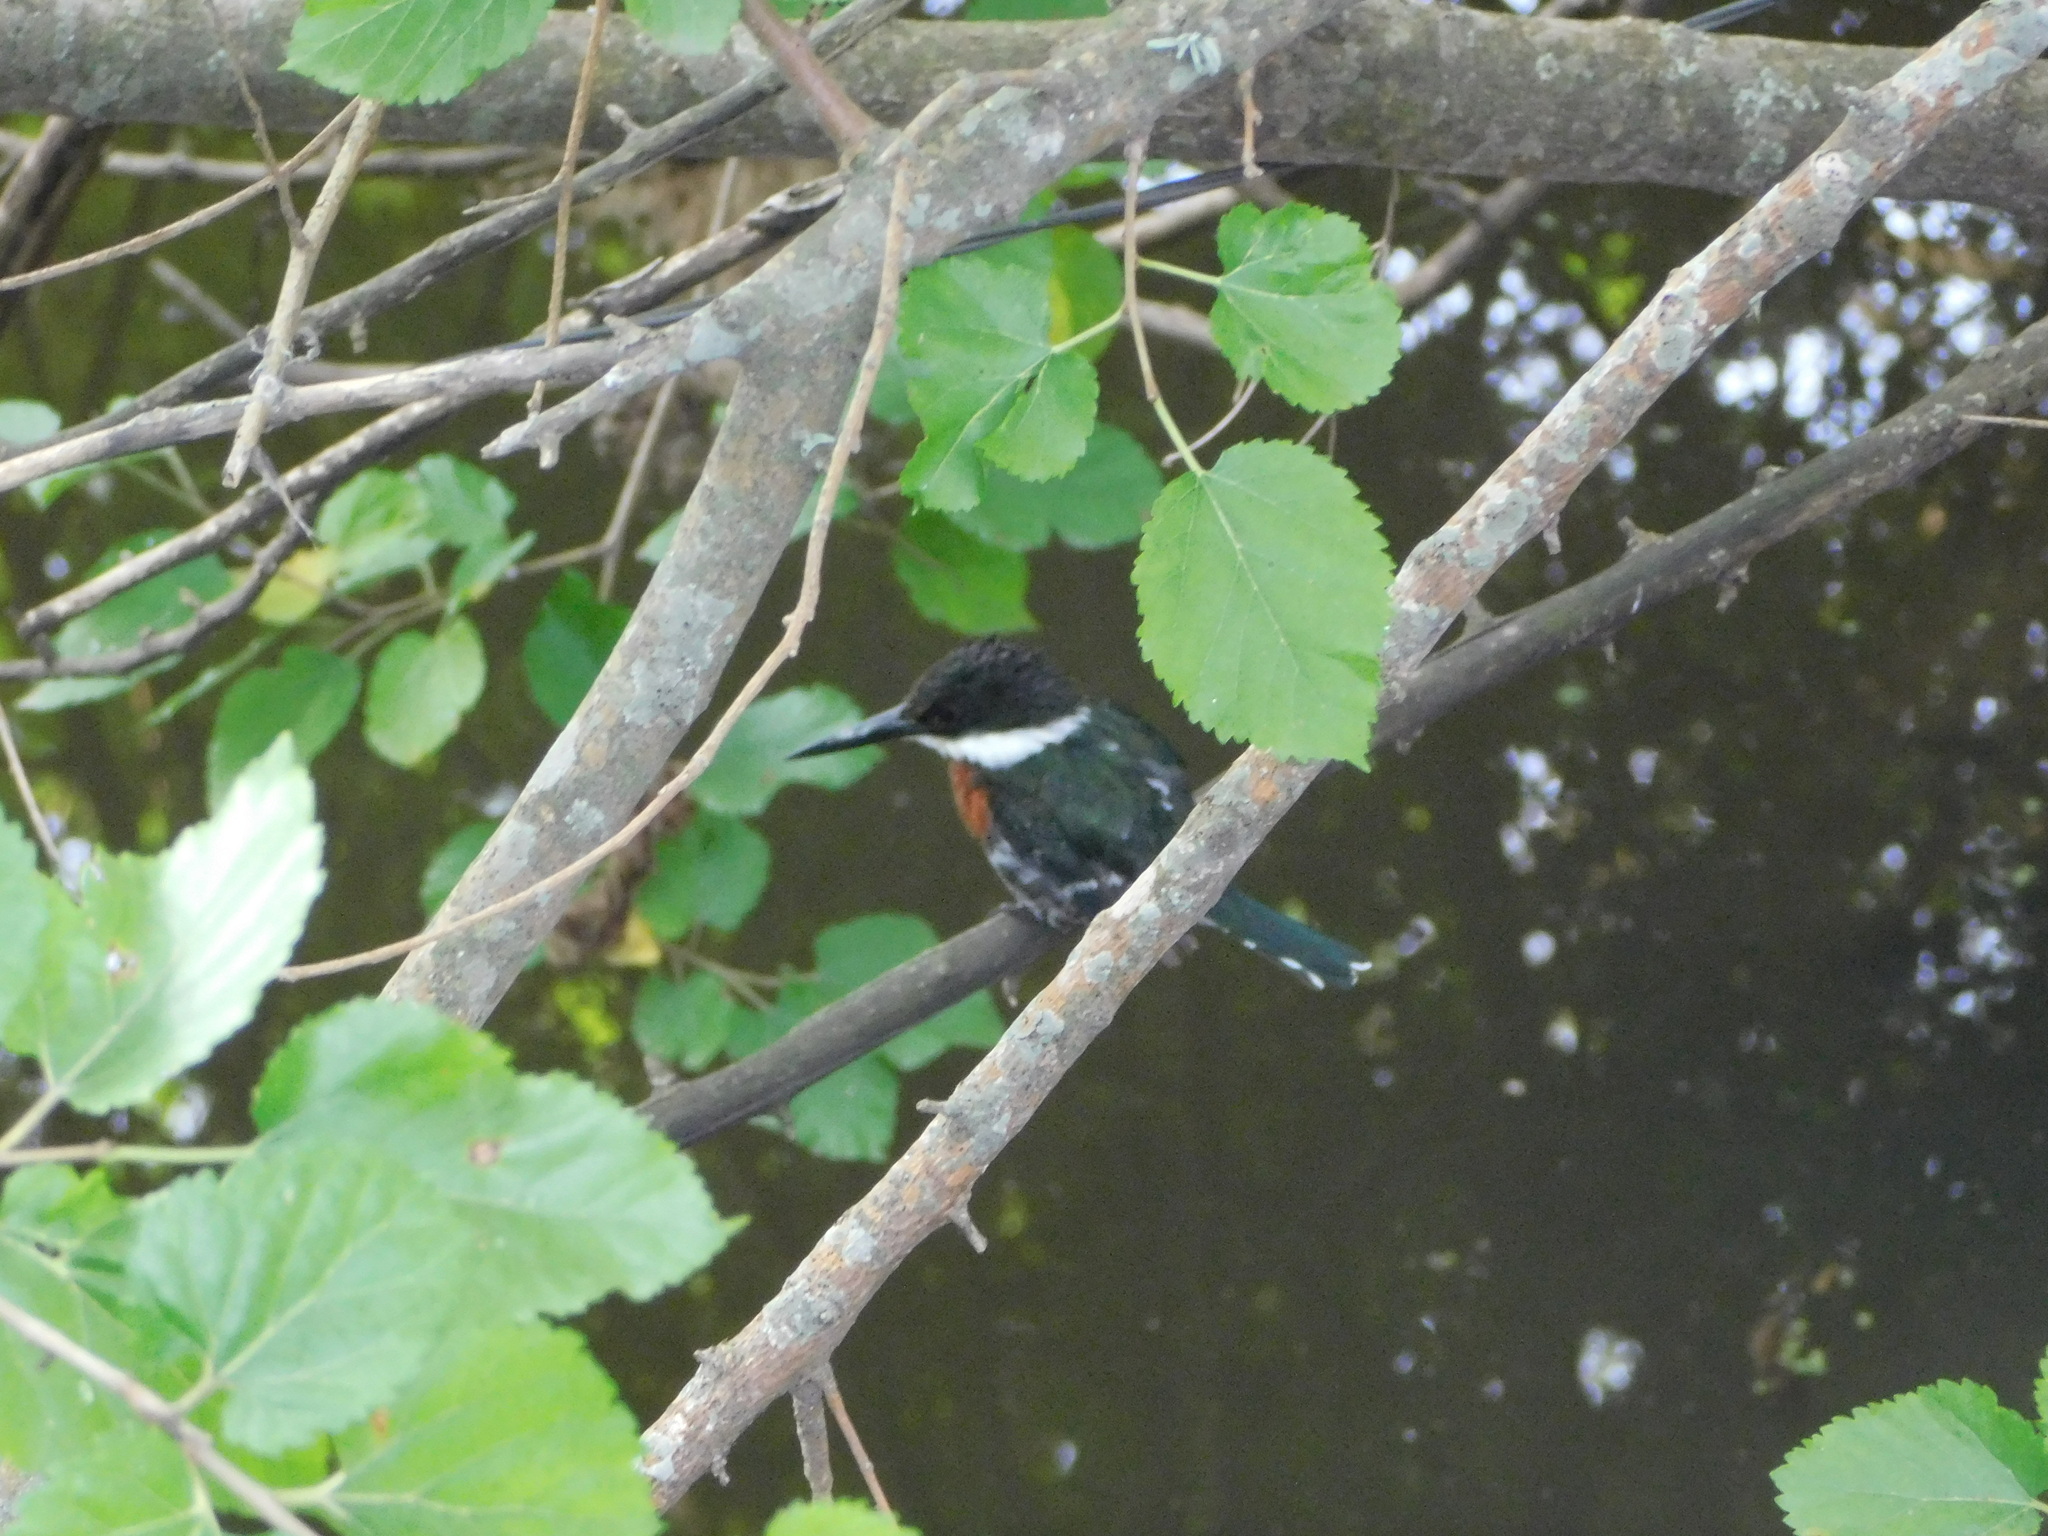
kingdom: Animalia
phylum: Chordata
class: Aves
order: Coraciiformes
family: Alcedinidae
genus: Chloroceryle
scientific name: Chloroceryle americana
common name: Green kingfisher
